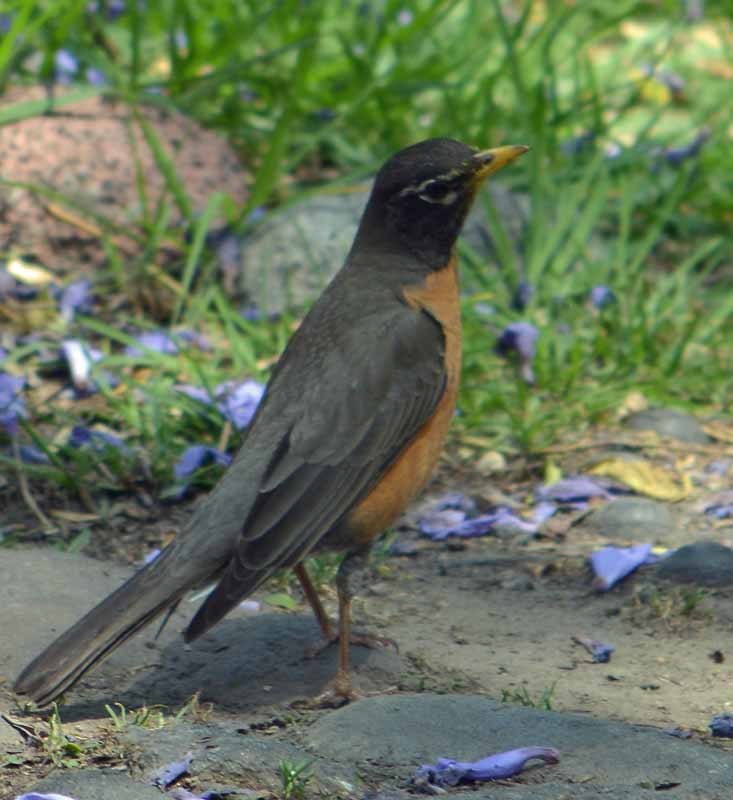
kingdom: Animalia
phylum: Chordata
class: Aves
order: Passeriformes
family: Turdidae
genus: Turdus
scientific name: Turdus migratorius
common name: American robin
